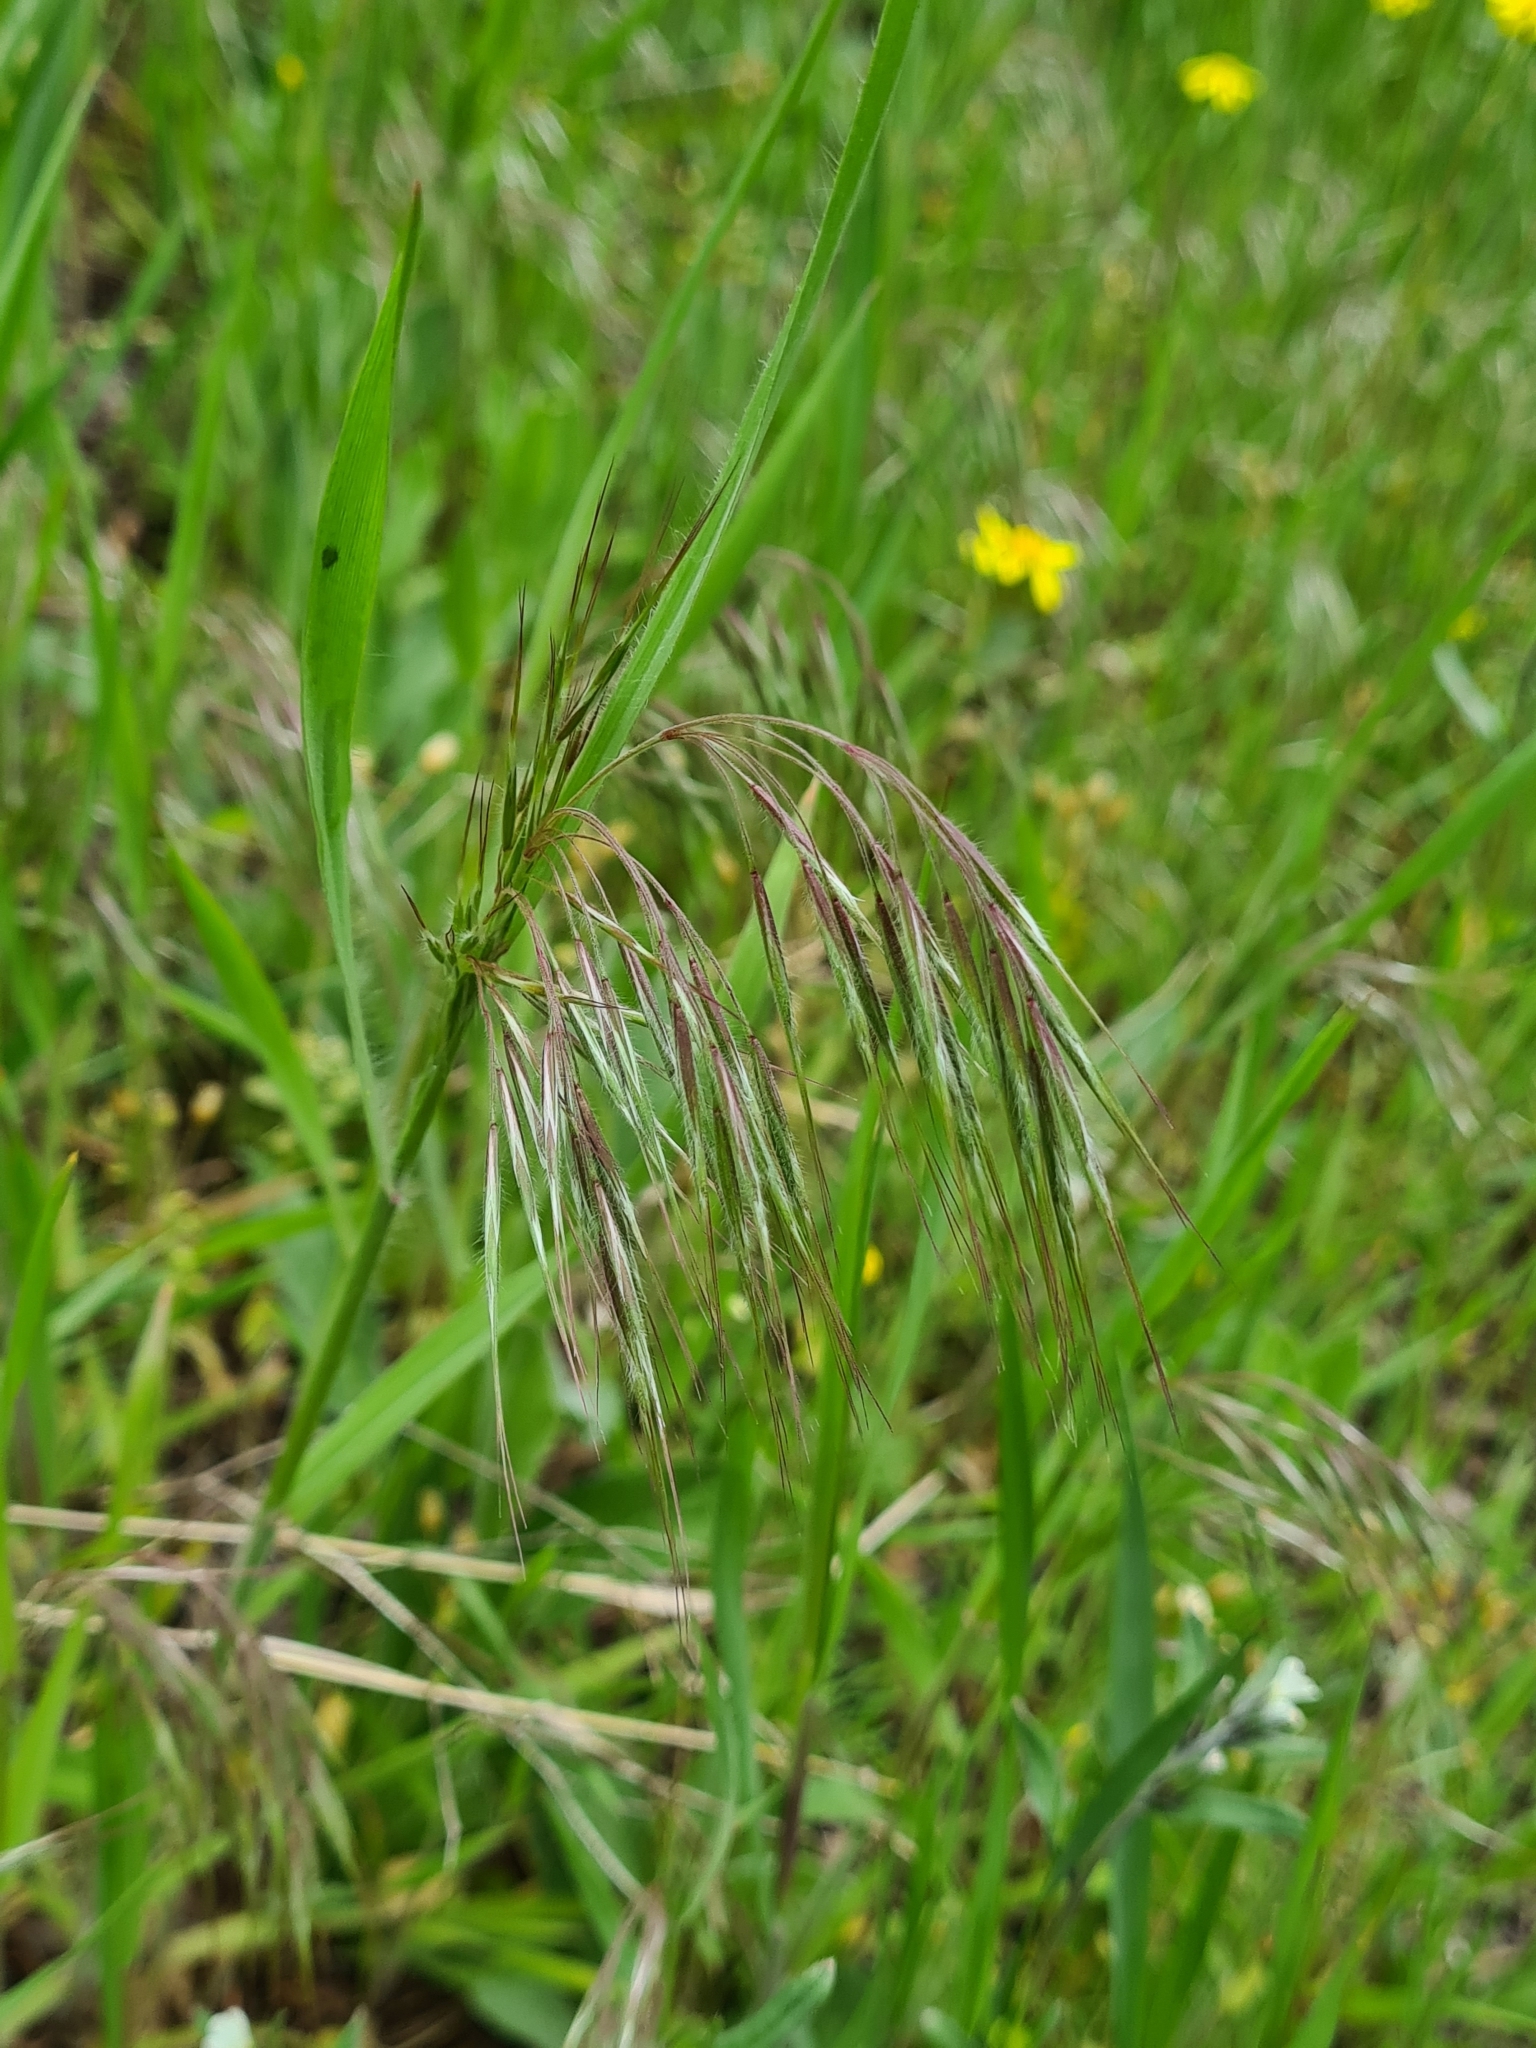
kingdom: Plantae
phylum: Tracheophyta
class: Liliopsida
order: Poales
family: Poaceae
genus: Bromus
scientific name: Bromus tectorum
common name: Cheatgrass
